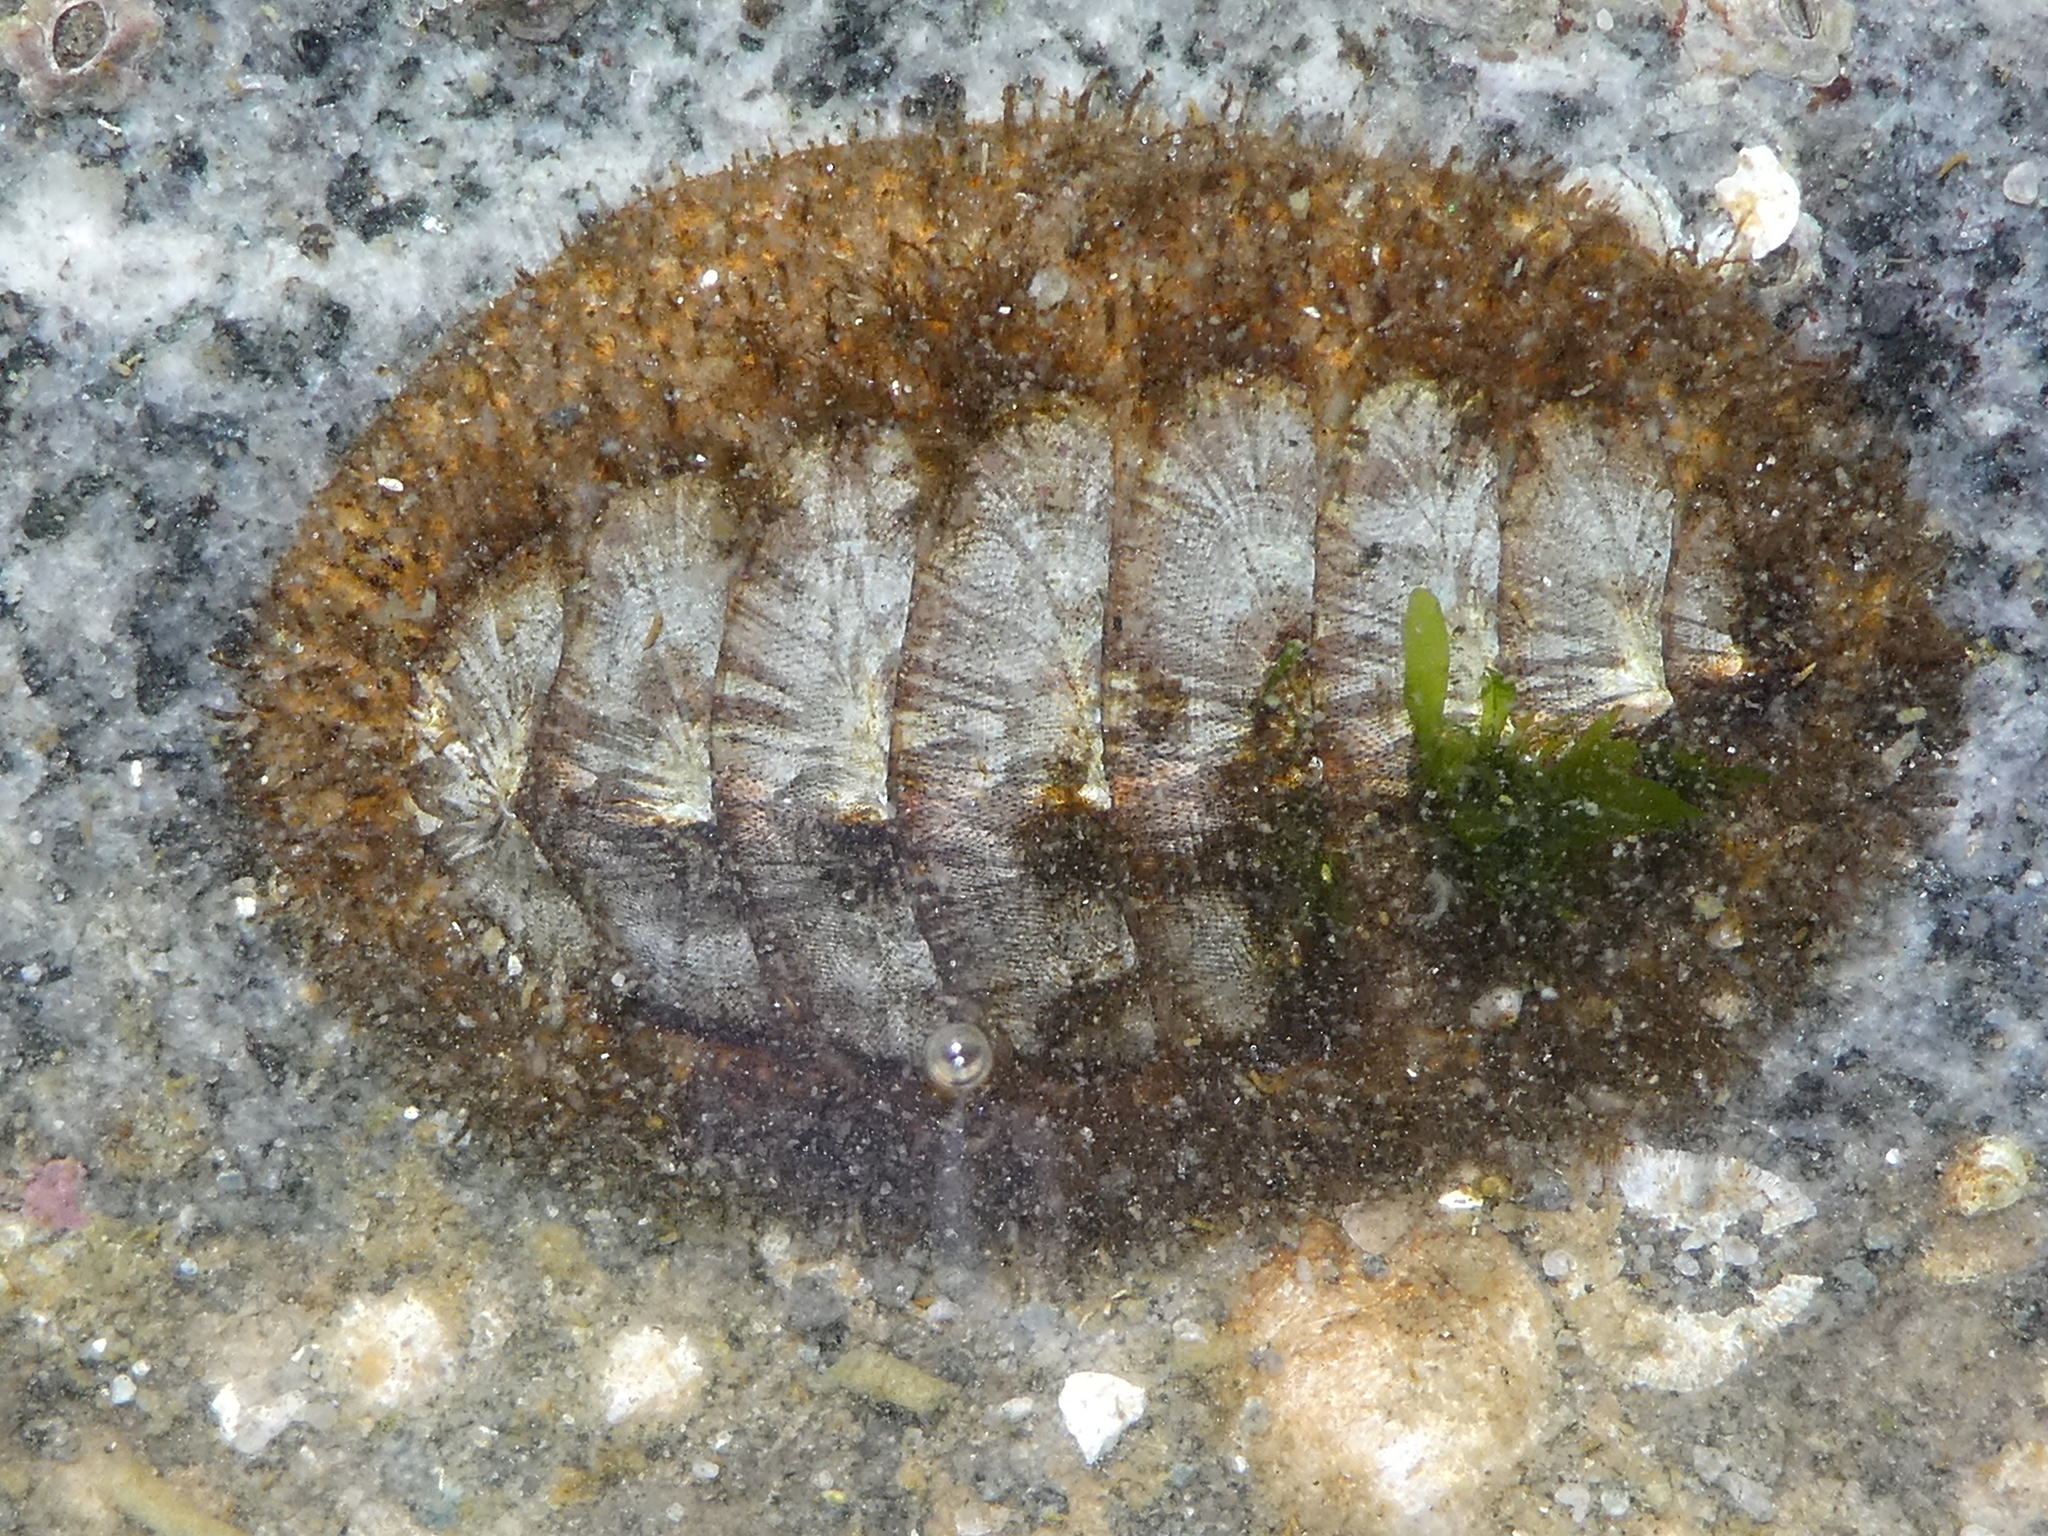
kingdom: Animalia
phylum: Mollusca
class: Polyplacophora
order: Chitonida
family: Mopaliidae
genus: Mopalia
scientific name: Mopalia lignosa
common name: Woody chiton
